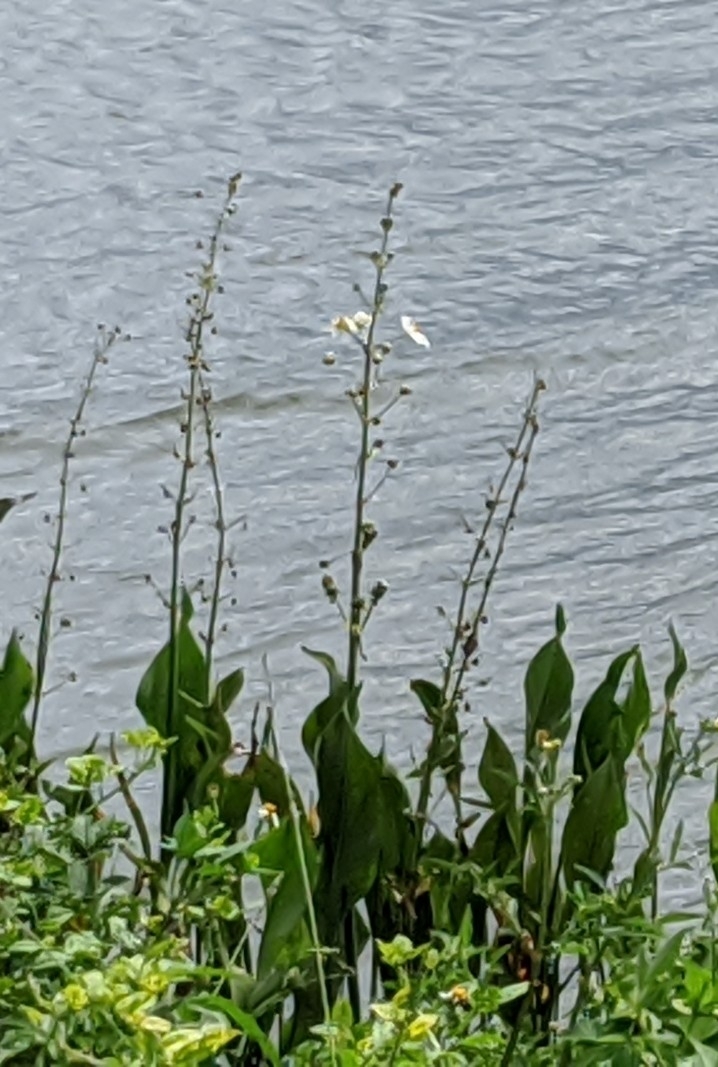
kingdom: Plantae
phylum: Tracheophyta
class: Liliopsida
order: Alismatales
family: Alismataceae
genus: Sagittaria
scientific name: Sagittaria lancifolia
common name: Lance-leaf arrowhead
